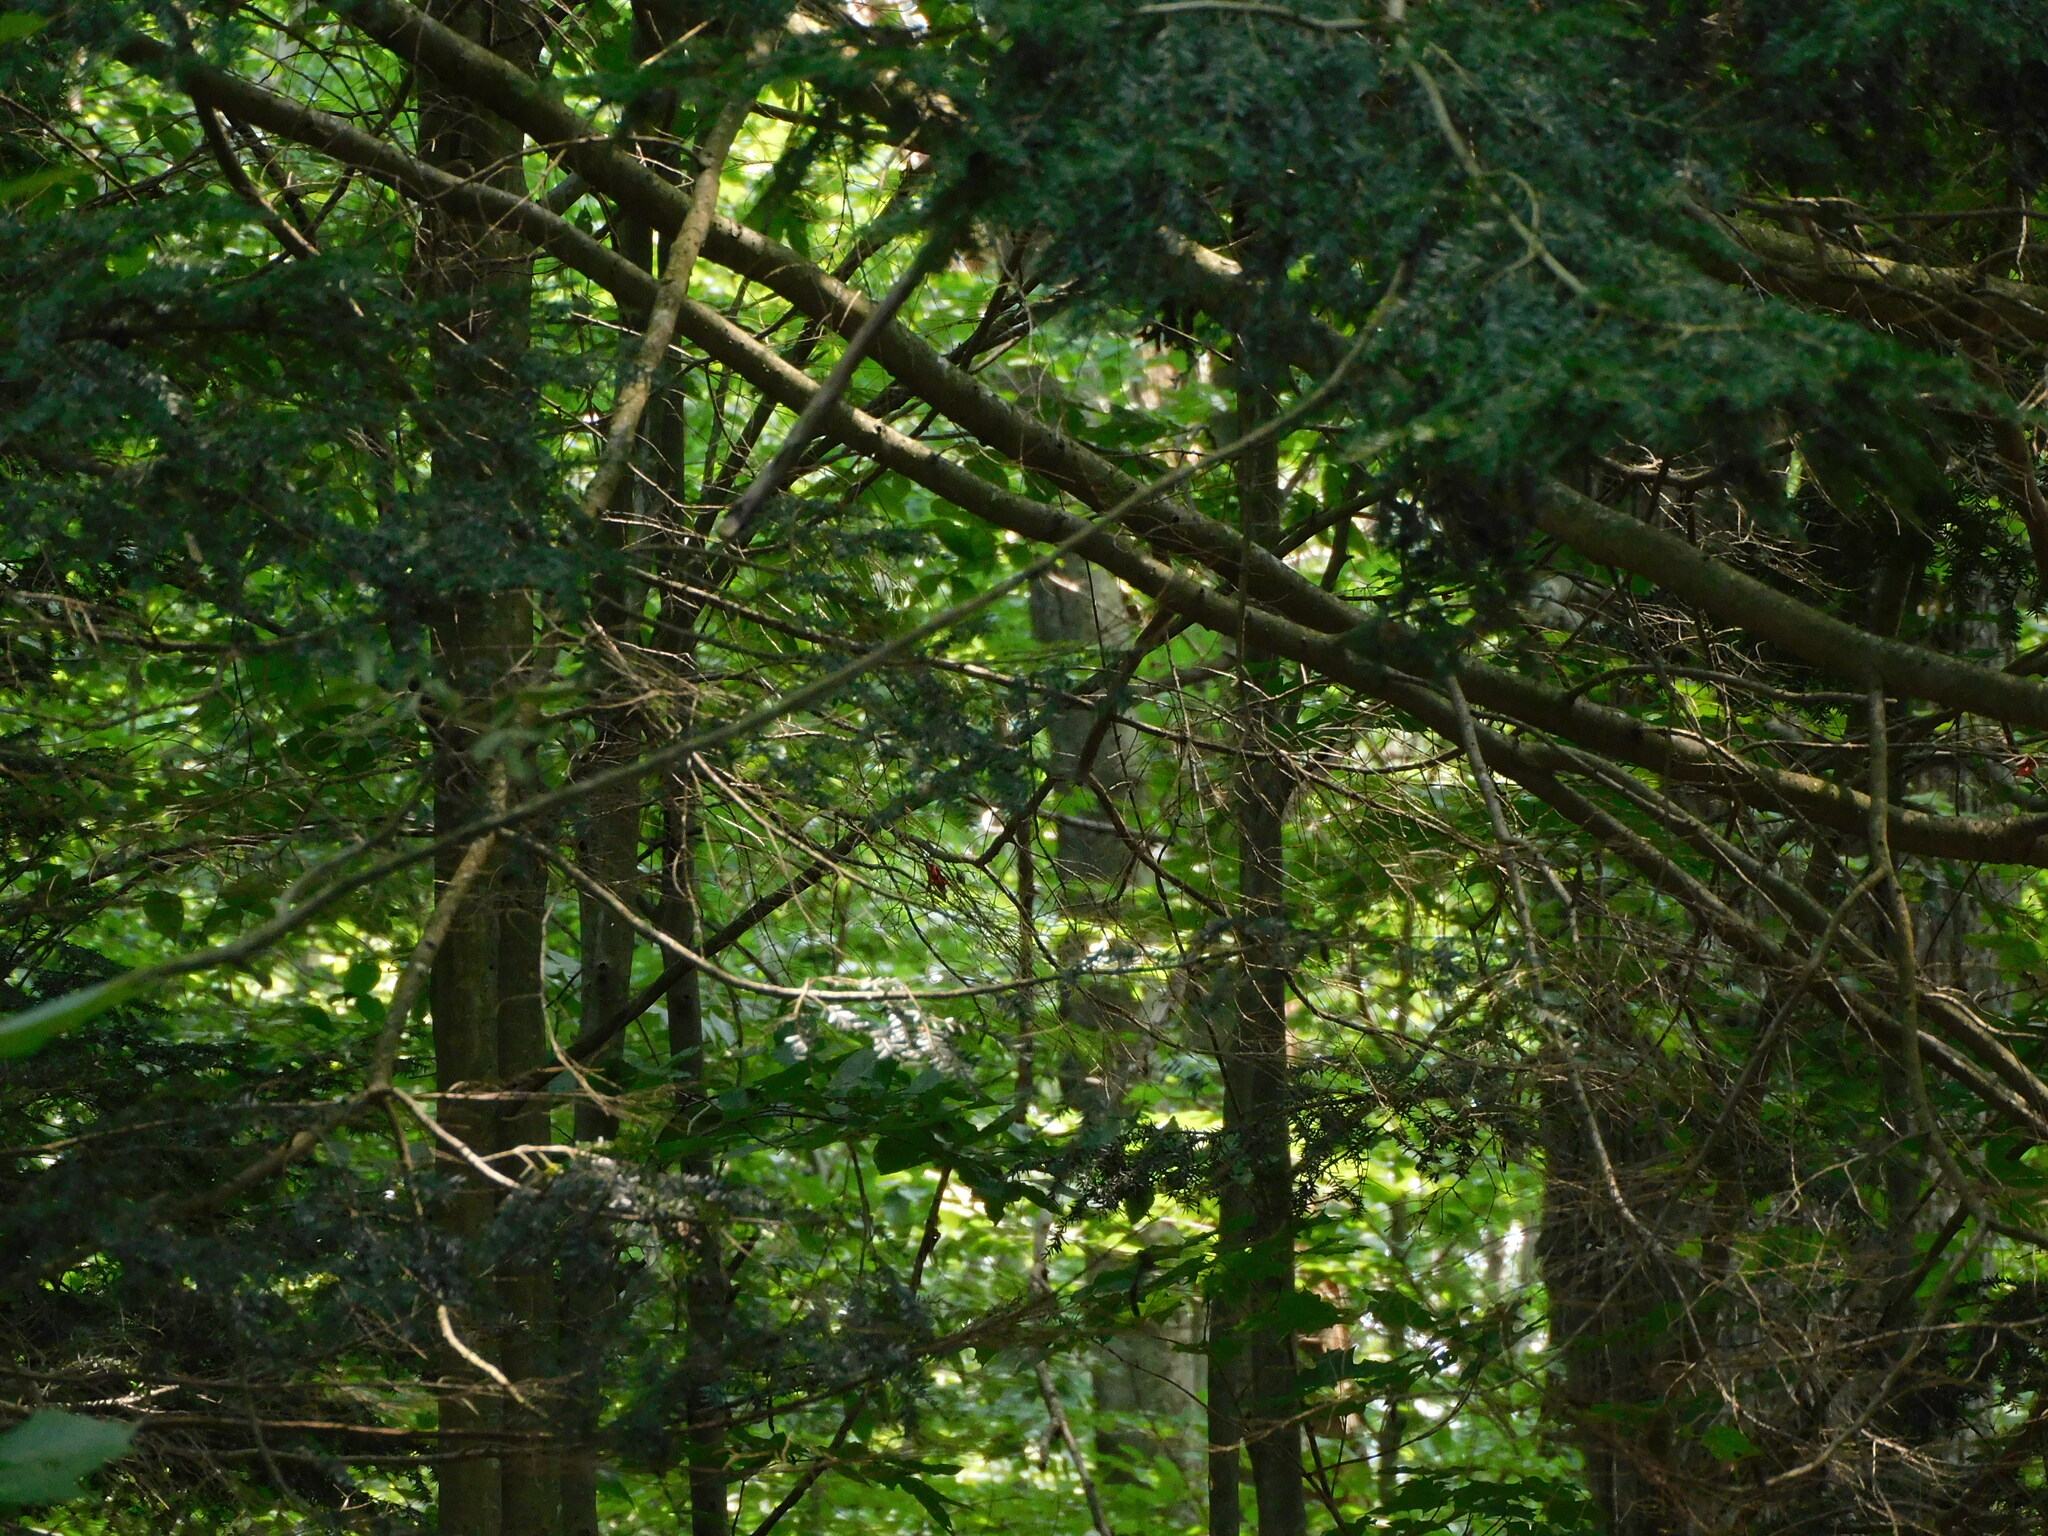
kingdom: Plantae
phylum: Tracheophyta
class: Pinopsida
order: Pinales
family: Pinaceae
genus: Tsuga
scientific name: Tsuga canadensis
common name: Eastern hemlock
